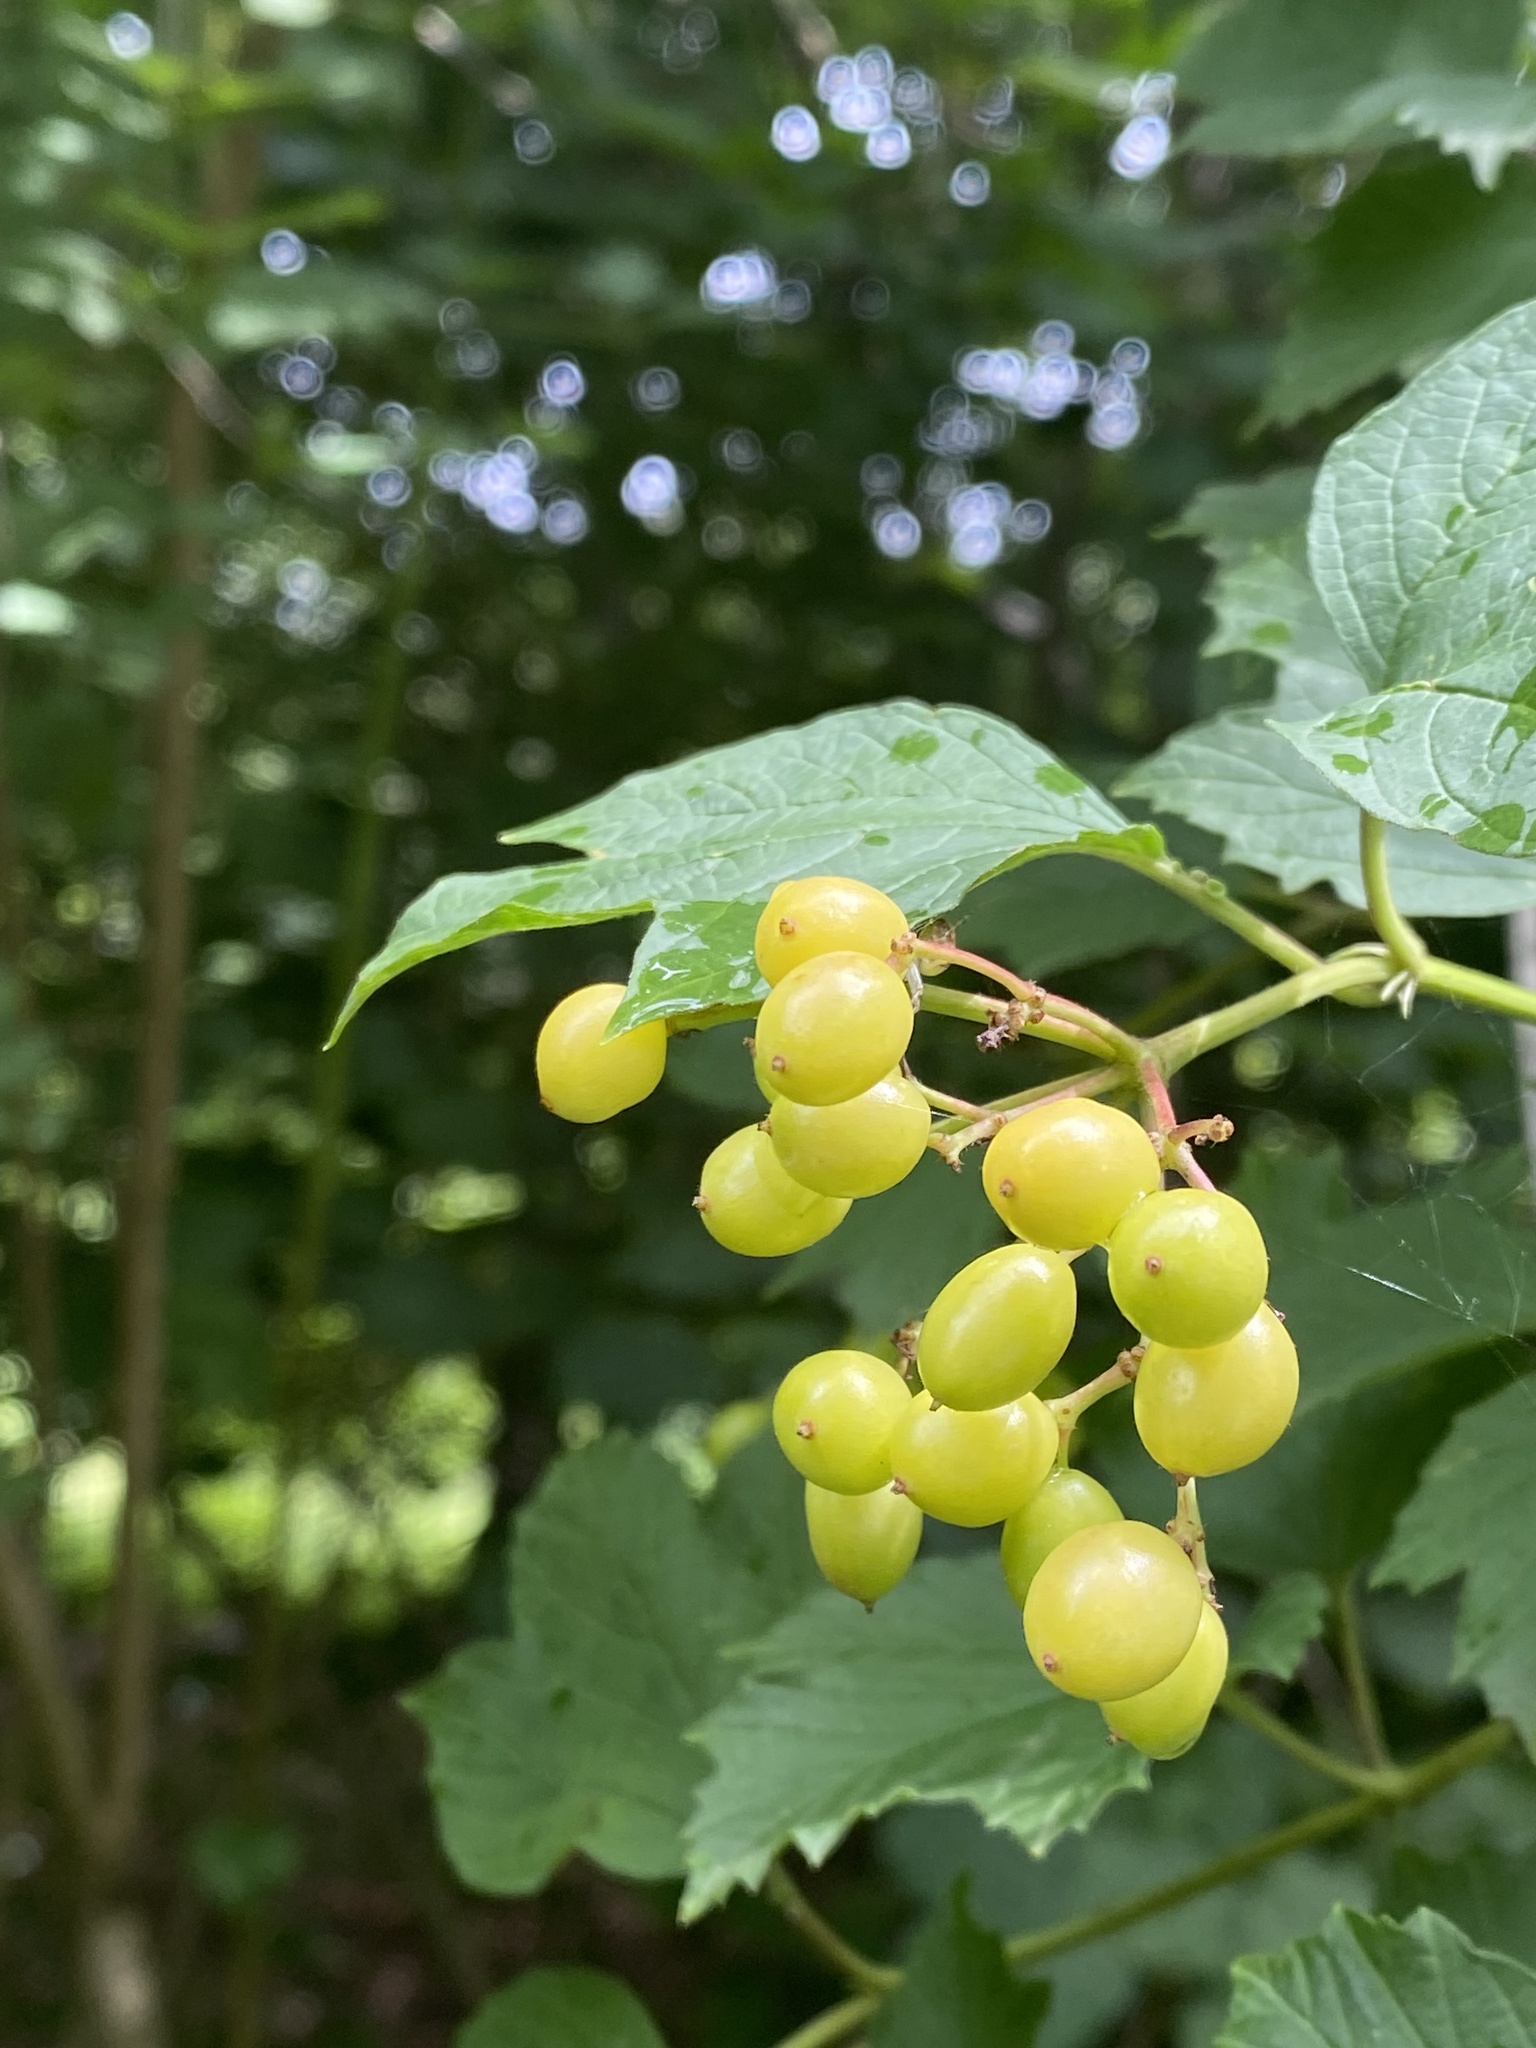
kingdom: Plantae
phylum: Tracheophyta
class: Magnoliopsida
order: Dipsacales
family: Viburnaceae
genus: Viburnum
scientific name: Viburnum opulus
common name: Guelder-rose
